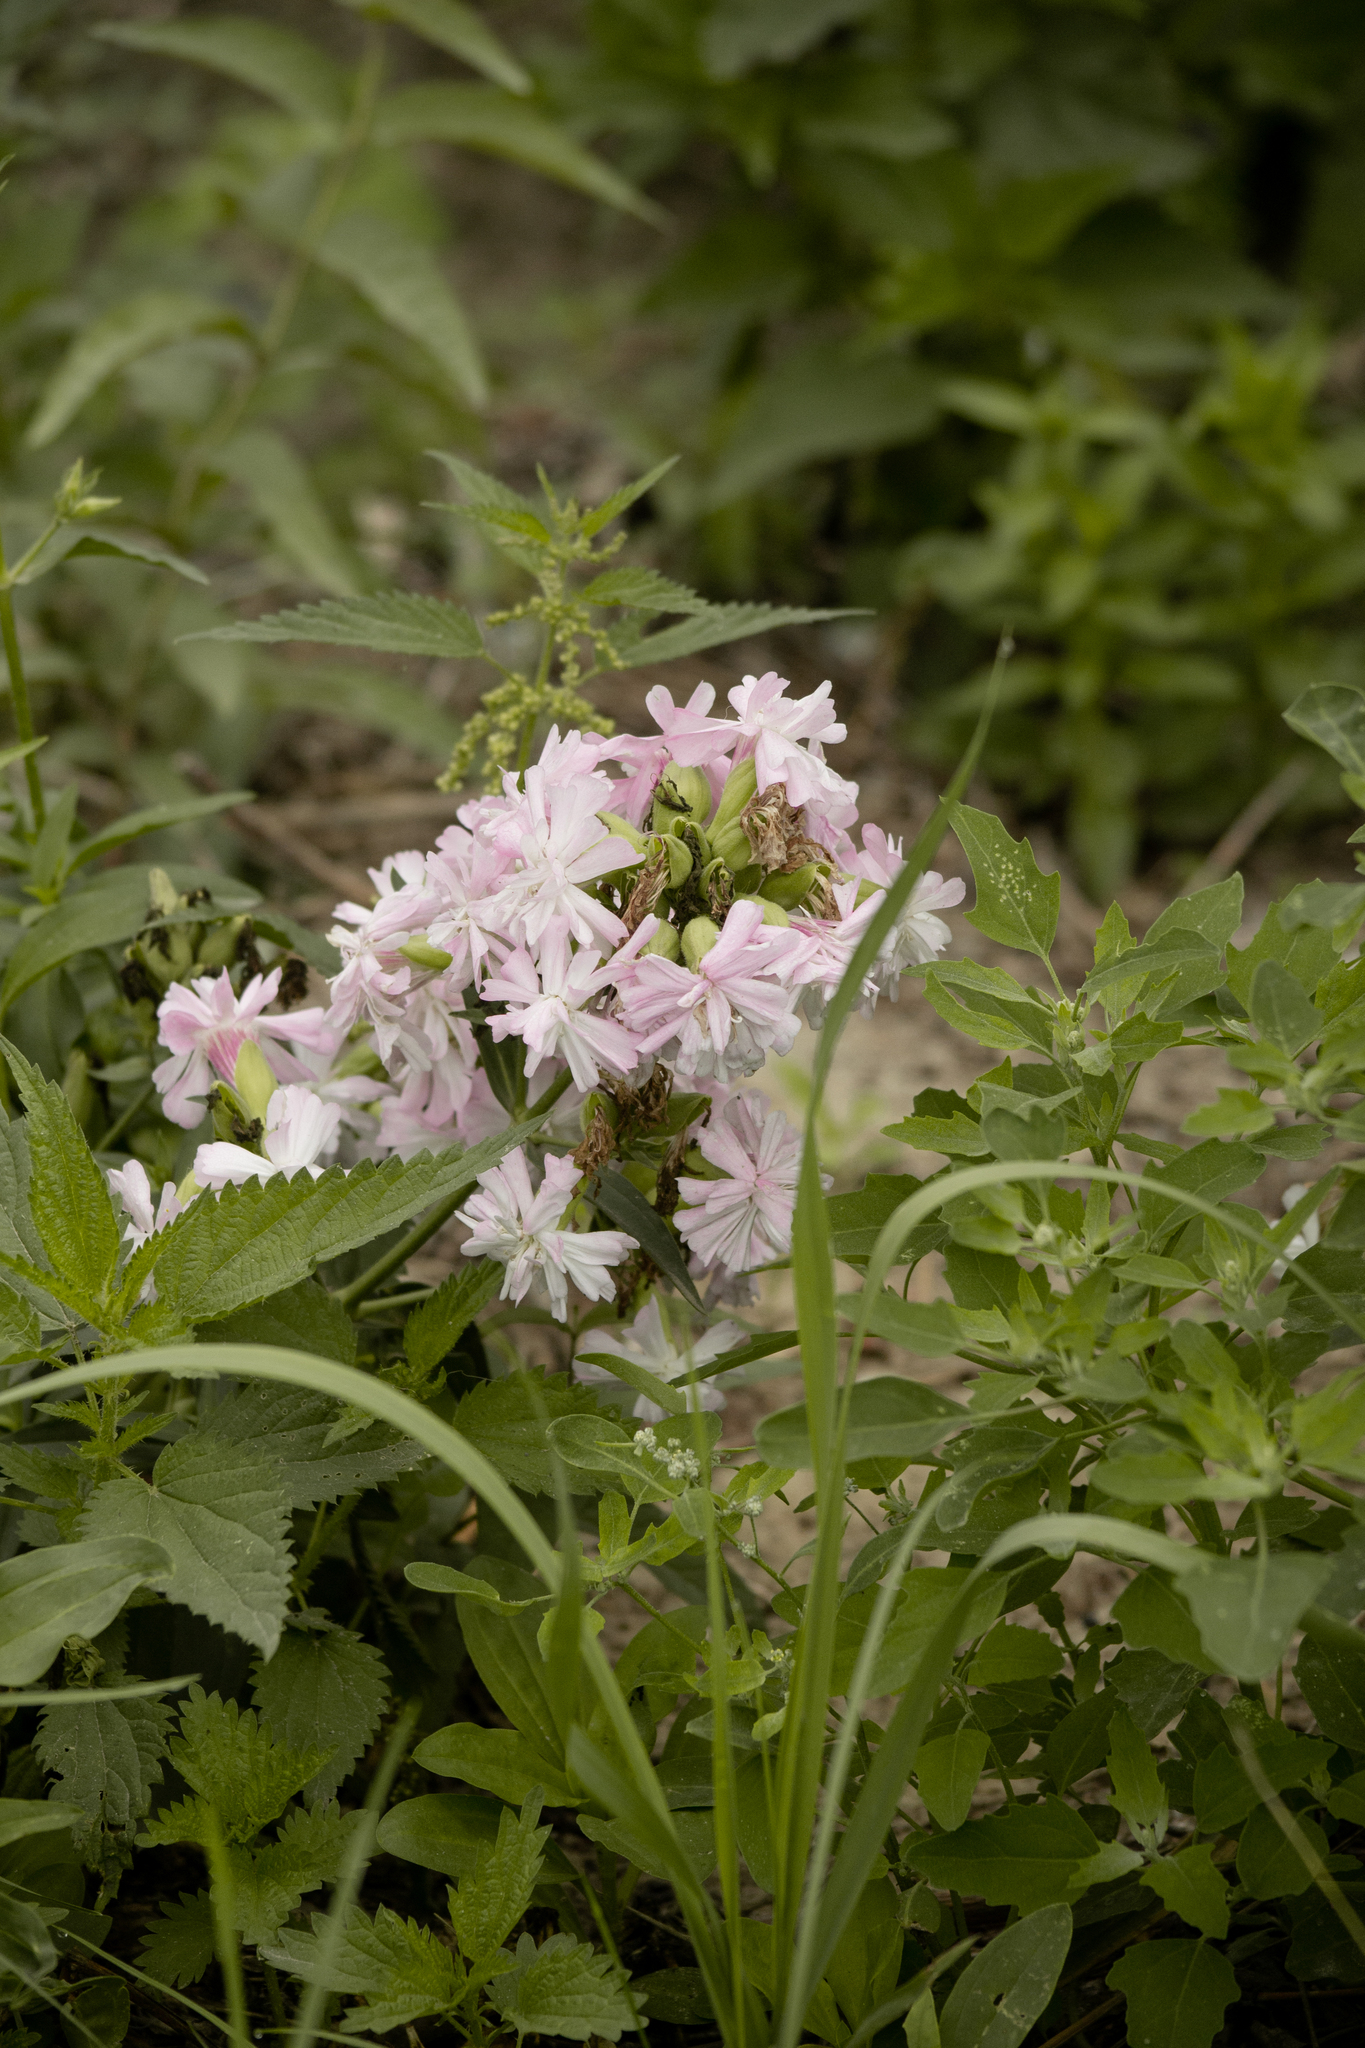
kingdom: Plantae
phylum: Tracheophyta
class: Magnoliopsida
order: Caryophyllales
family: Caryophyllaceae
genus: Saponaria
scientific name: Saponaria officinalis
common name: Soapwort
